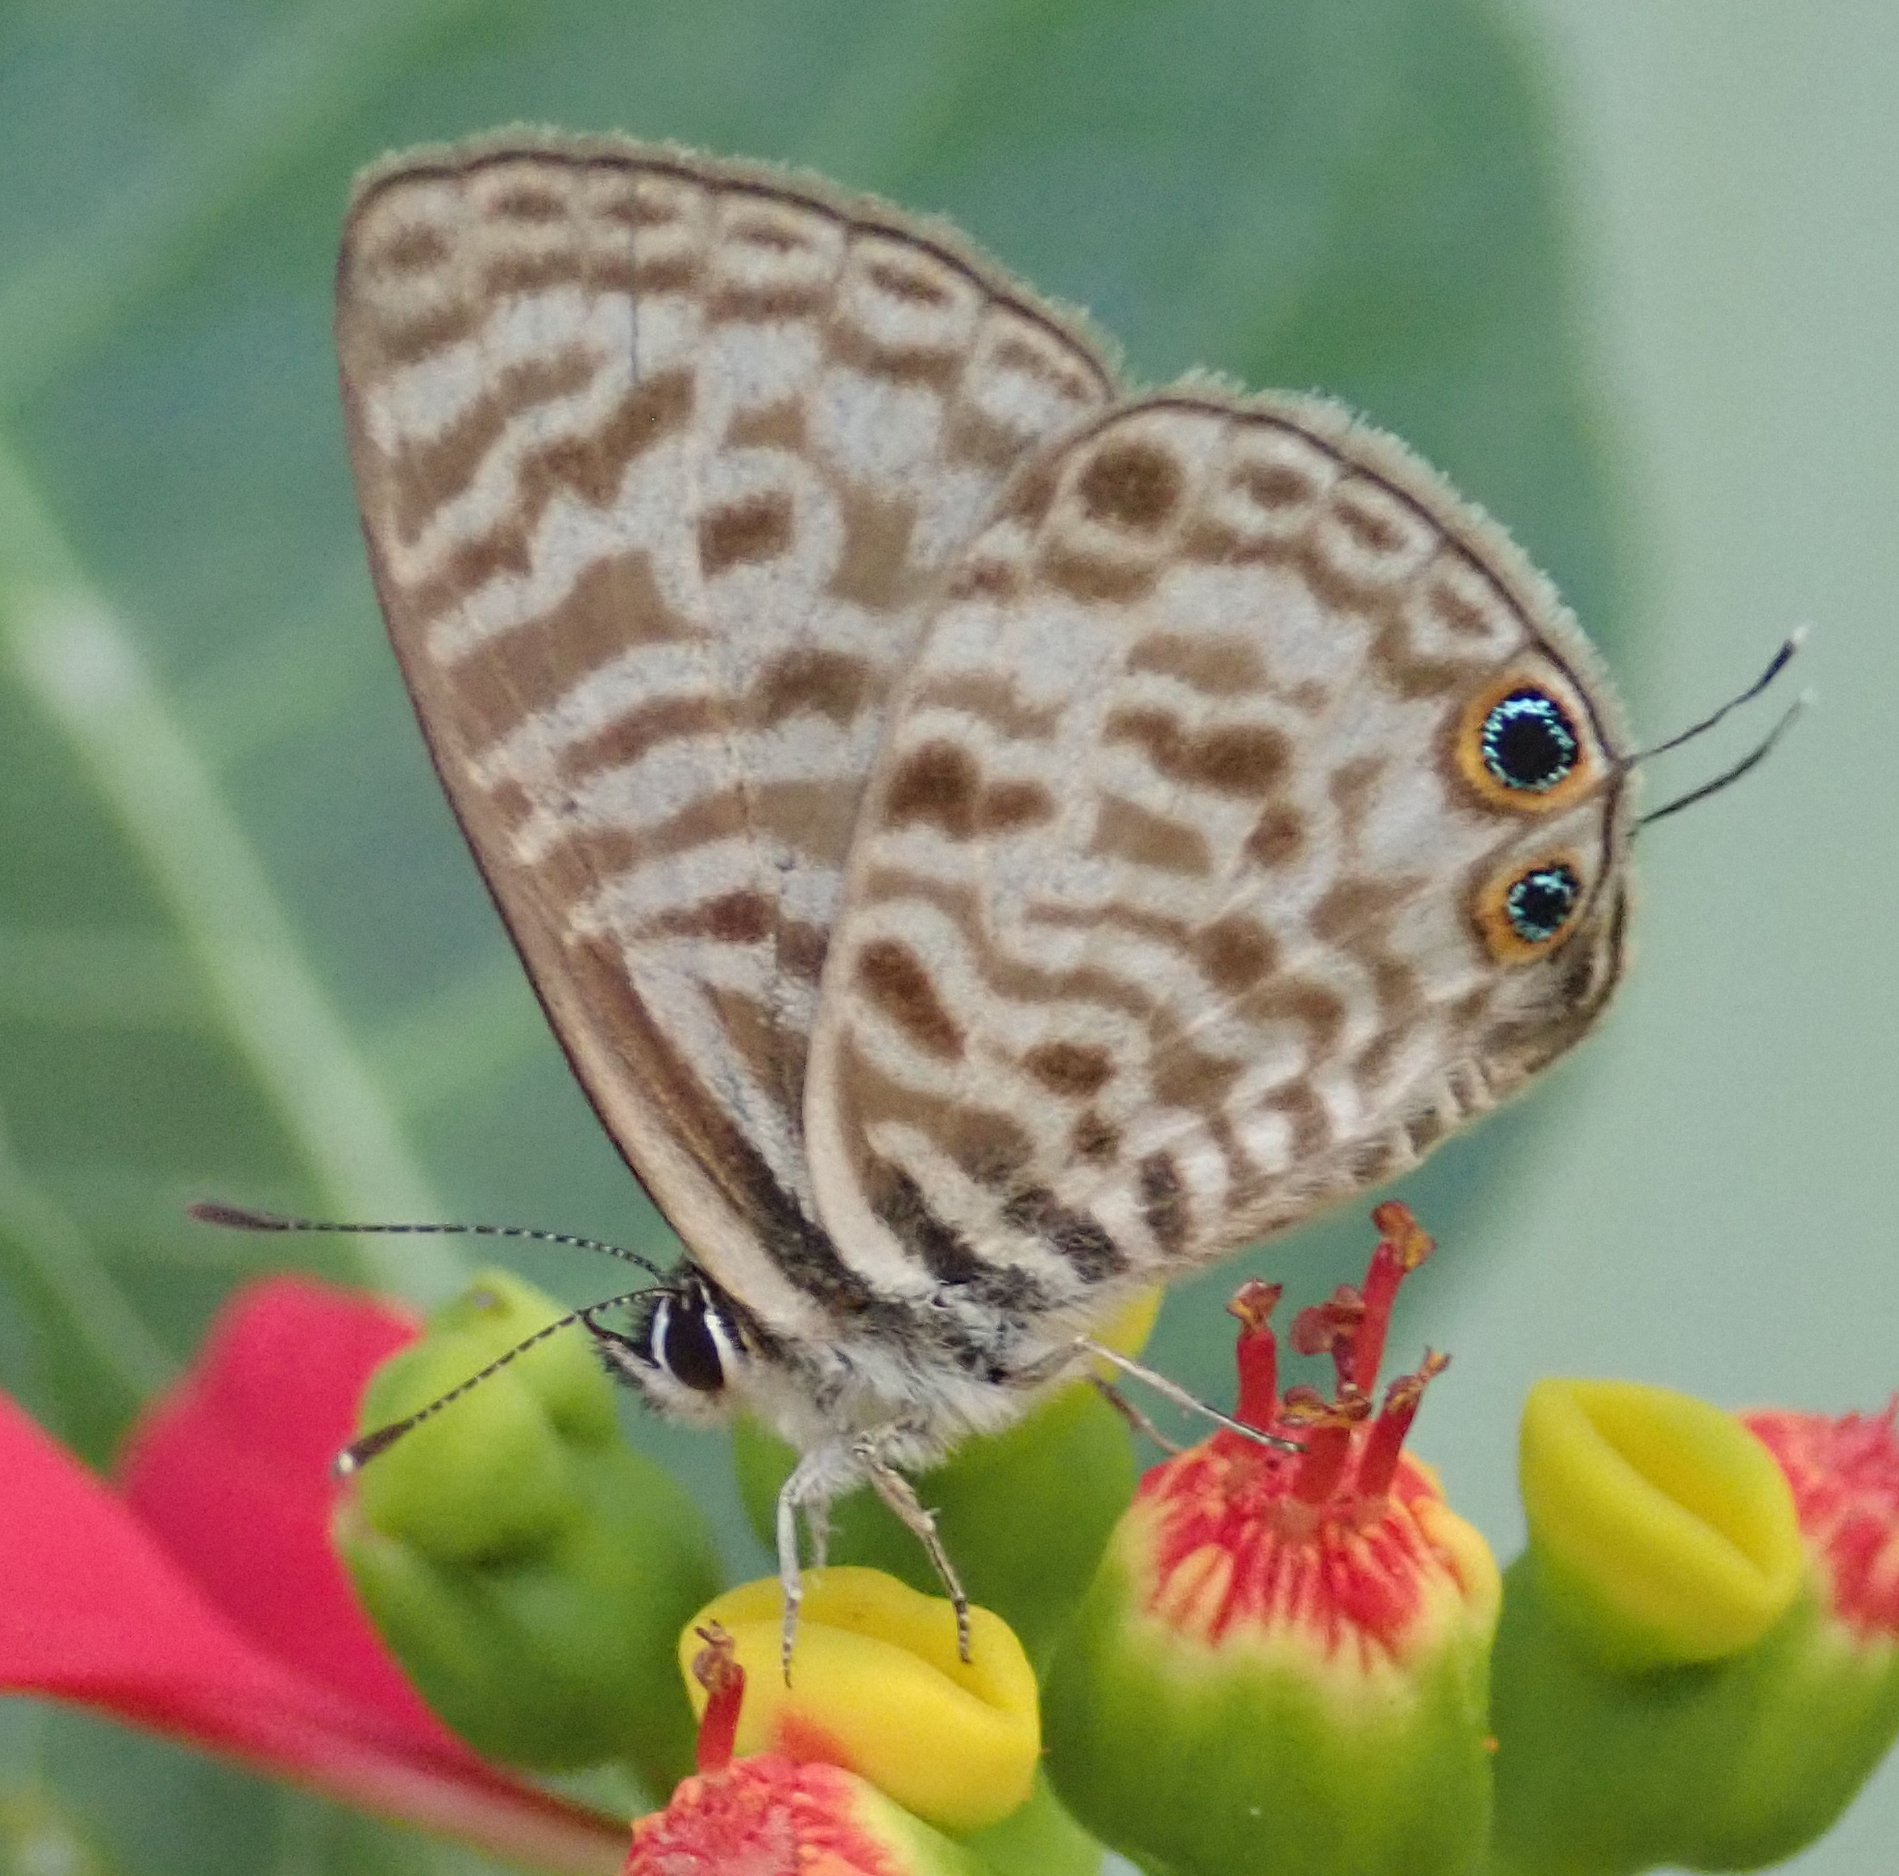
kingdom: Animalia
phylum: Arthropoda
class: Insecta
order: Lepidoptera
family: Lycaenidae
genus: Leptotes
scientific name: Leptotes
